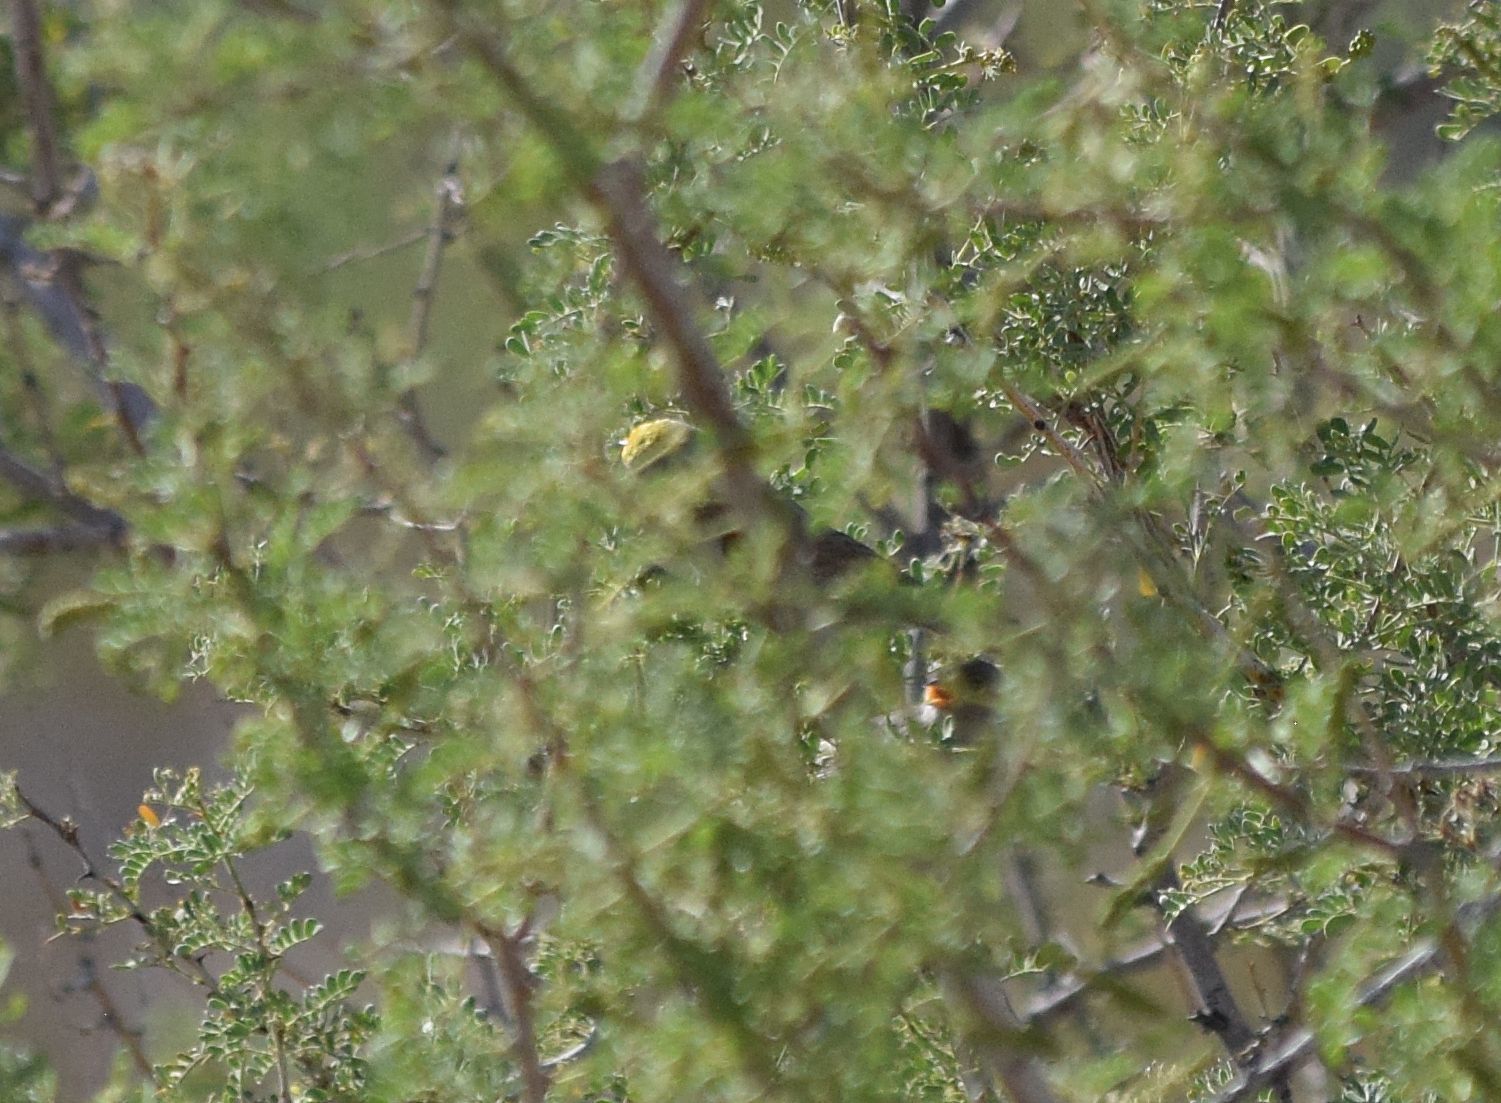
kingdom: Animalia
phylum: Chordata
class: Aves
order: Passeriformes
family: Remizidae
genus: Auriparus
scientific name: Auriparus flaviceps
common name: Verdin
